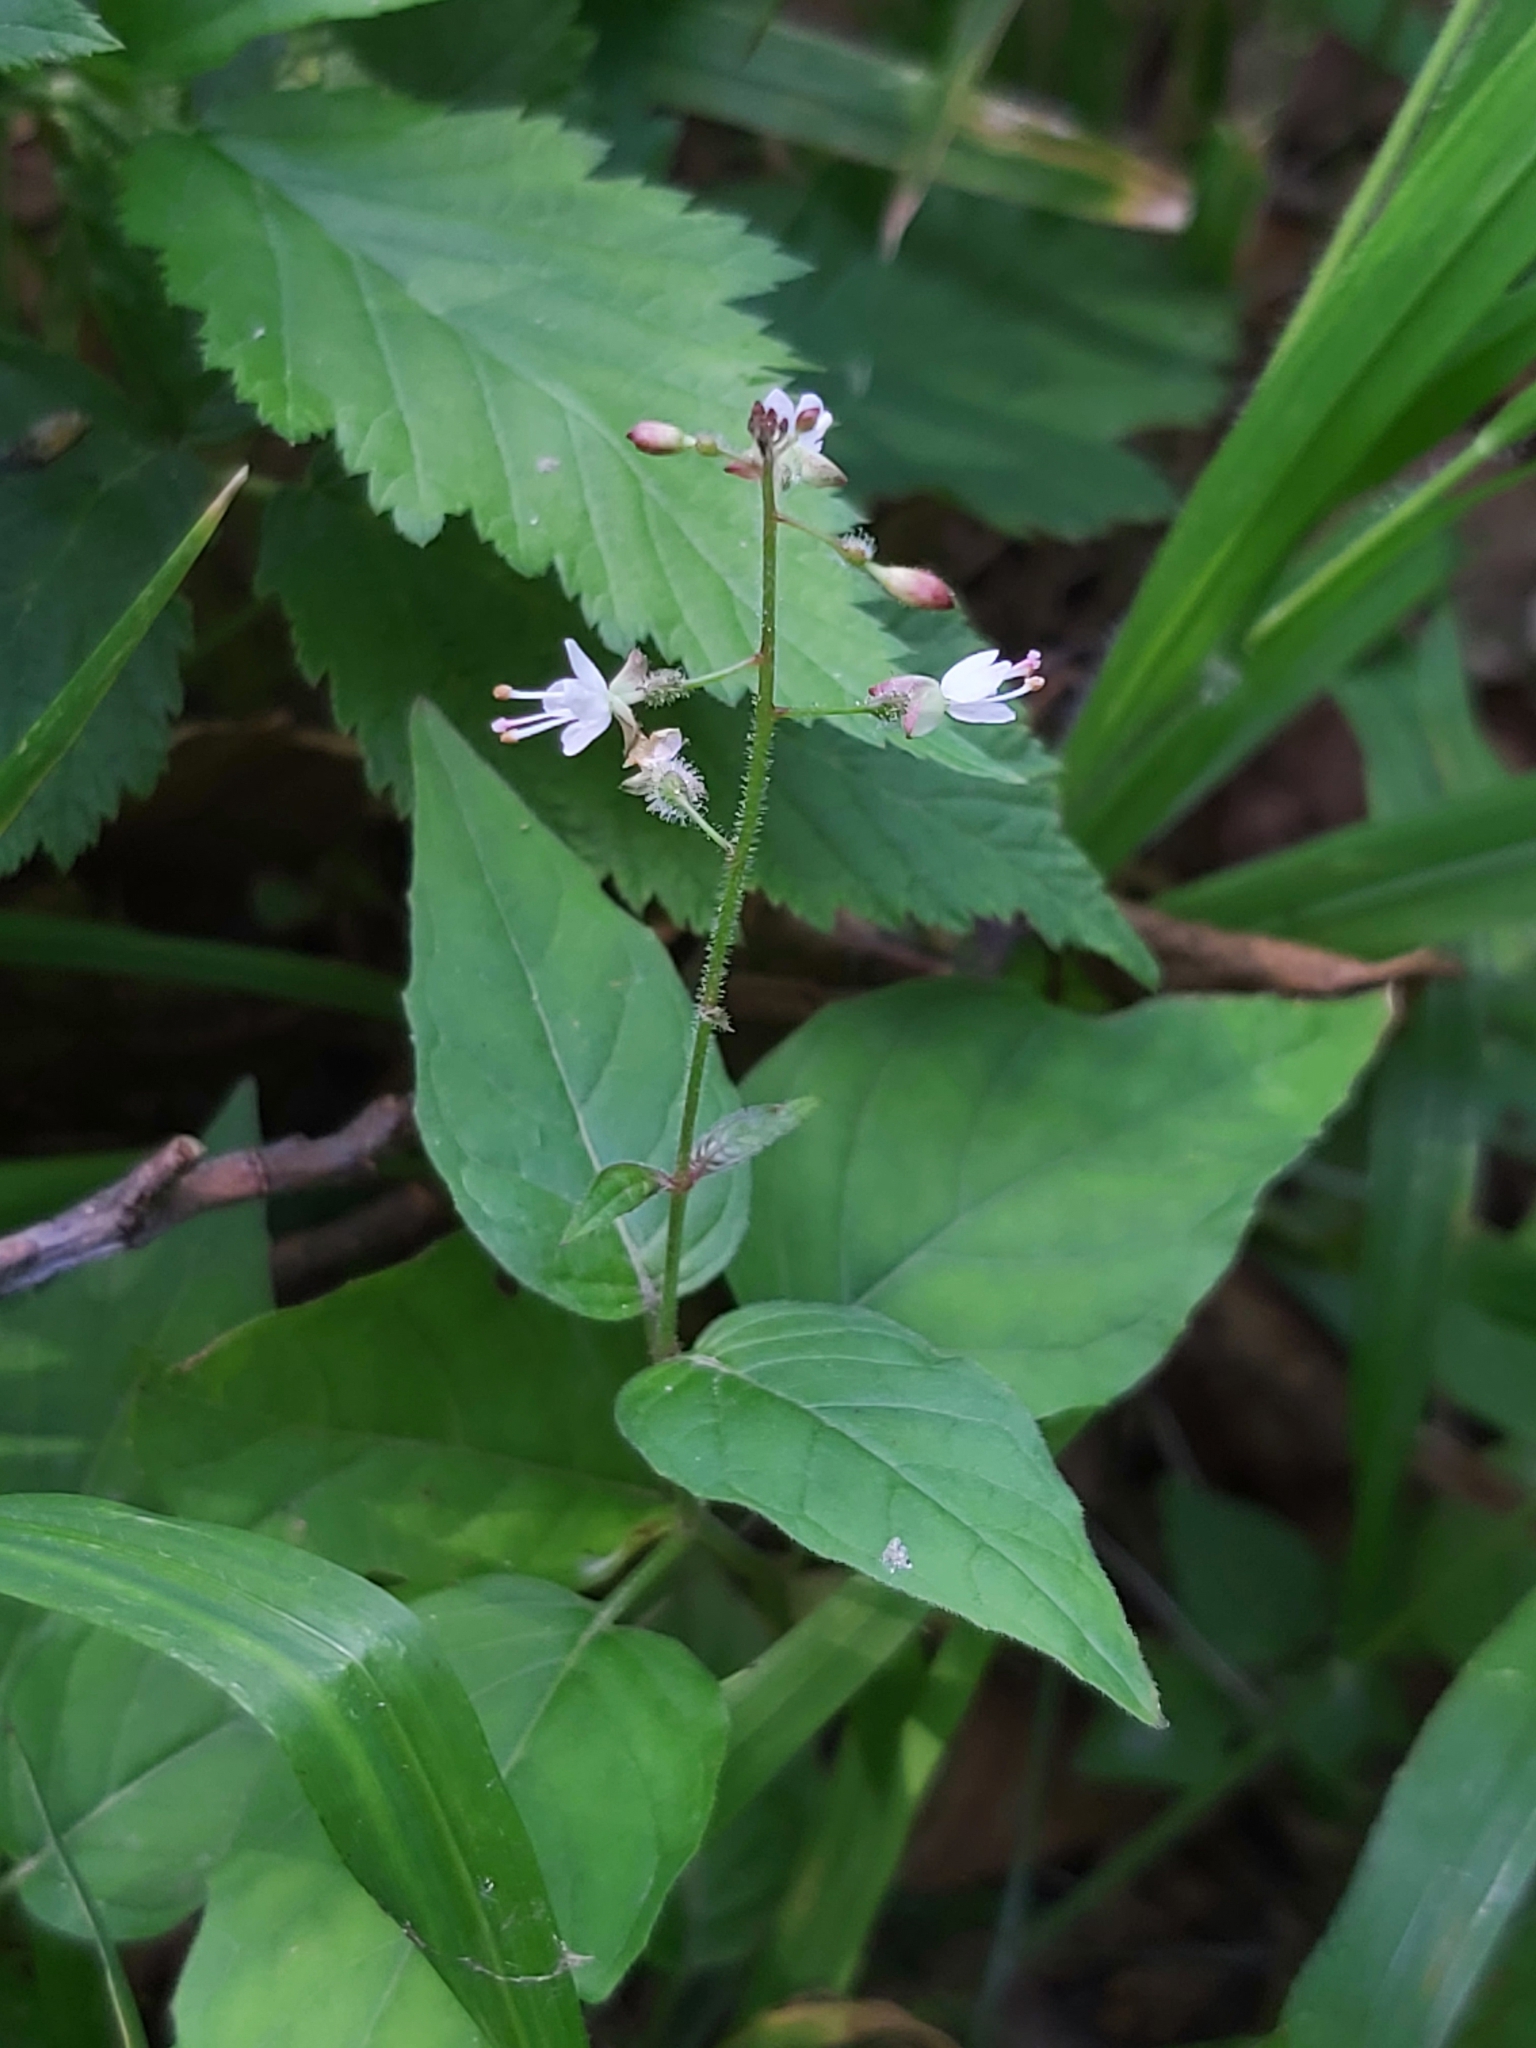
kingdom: Plantae
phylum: Tracheophyta
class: Magnoliopsida
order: Myrtales
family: Onagraceae
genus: Circaea
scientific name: Circaea lutetiana
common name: Enchanter's-nightshade
